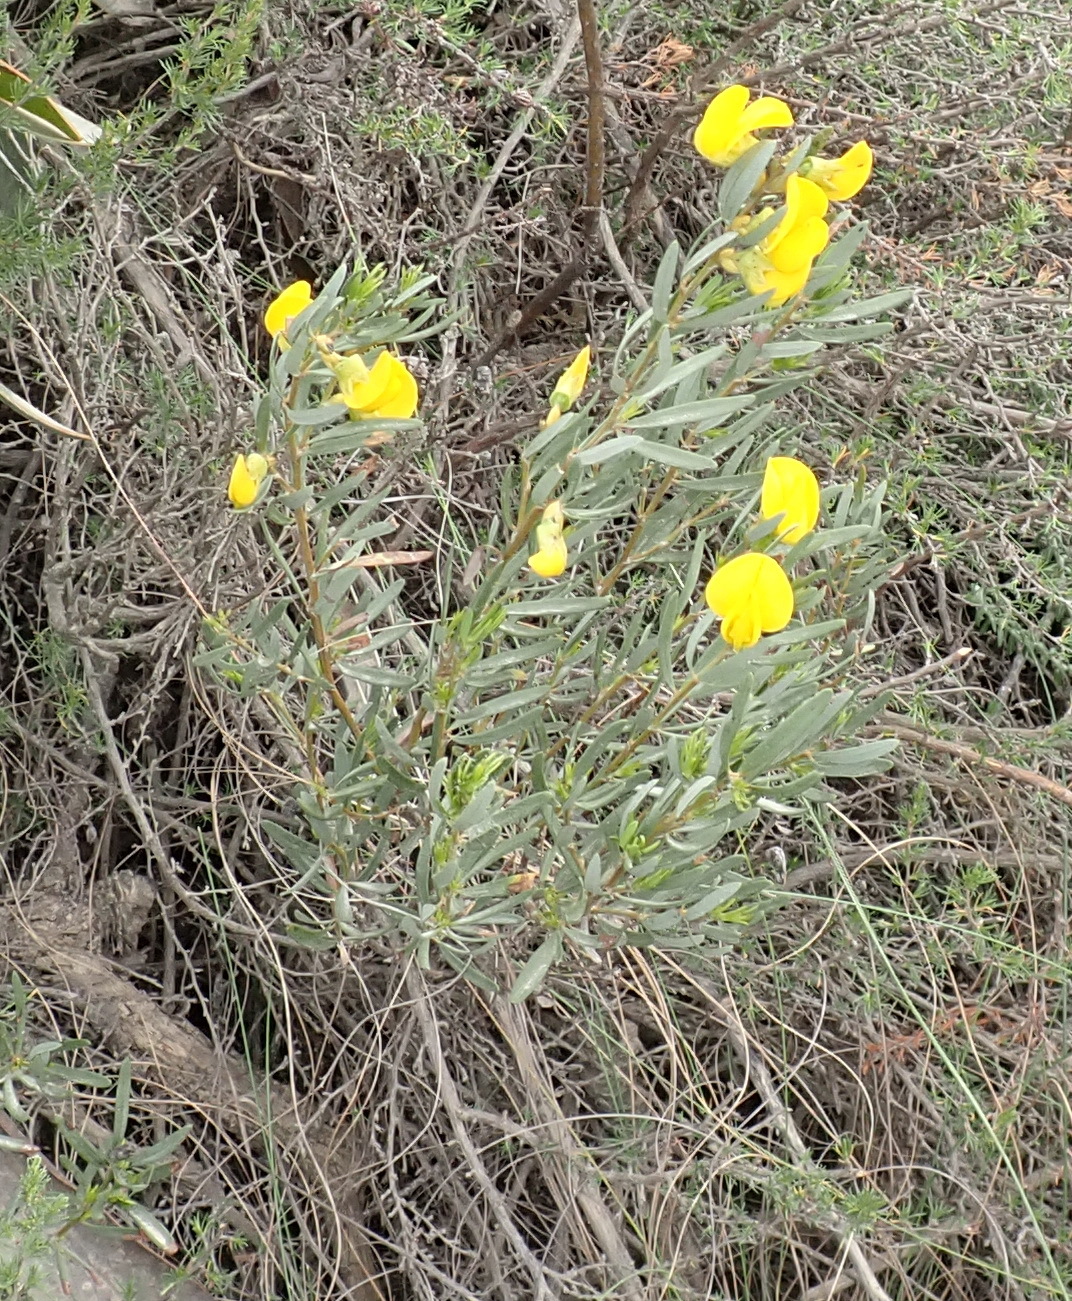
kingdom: Plantae
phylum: Tracheophyta
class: Magnoliopsida
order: Fabales
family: Fabaceae
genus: Cyclopia
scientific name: Cyclopia intermedia
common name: Mountain tea
